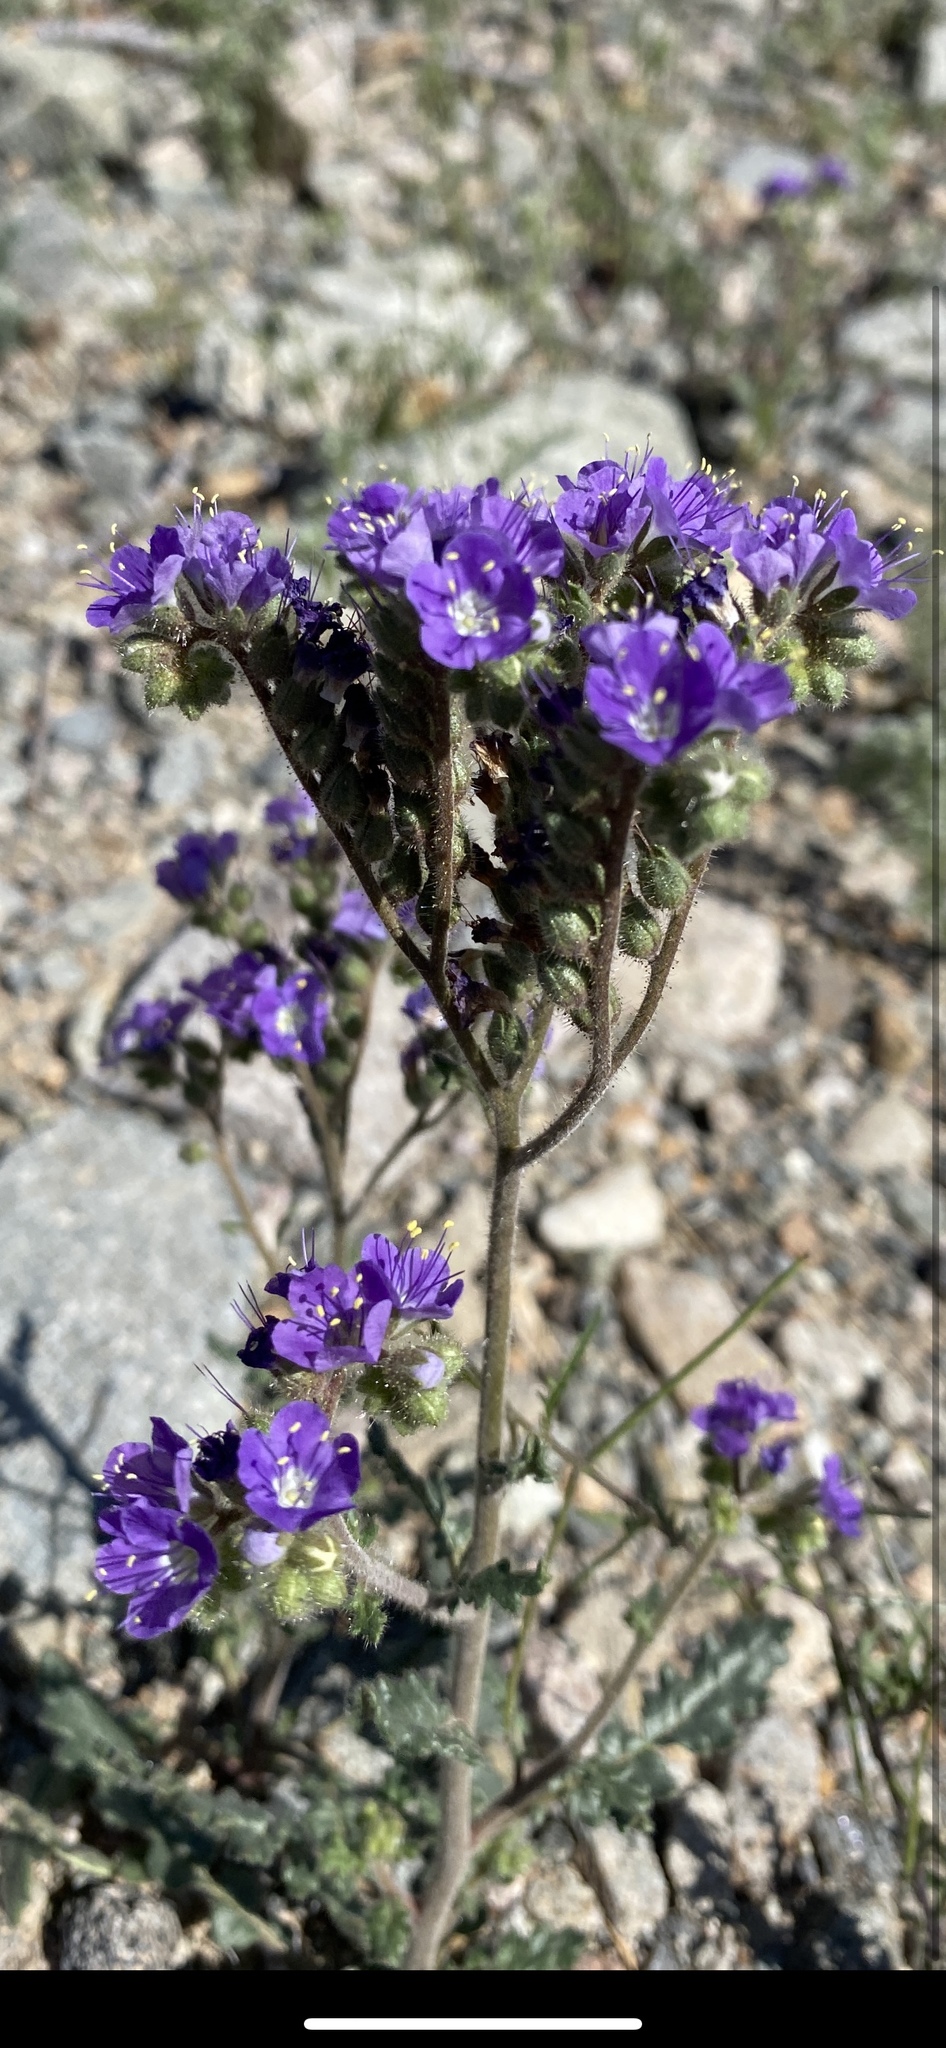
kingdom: Plantae
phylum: Tracheophyta
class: Magnoliopsida
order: Boraginales
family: Hydrophyllaceae
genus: Phacelia
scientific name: Phacelia crenulata
